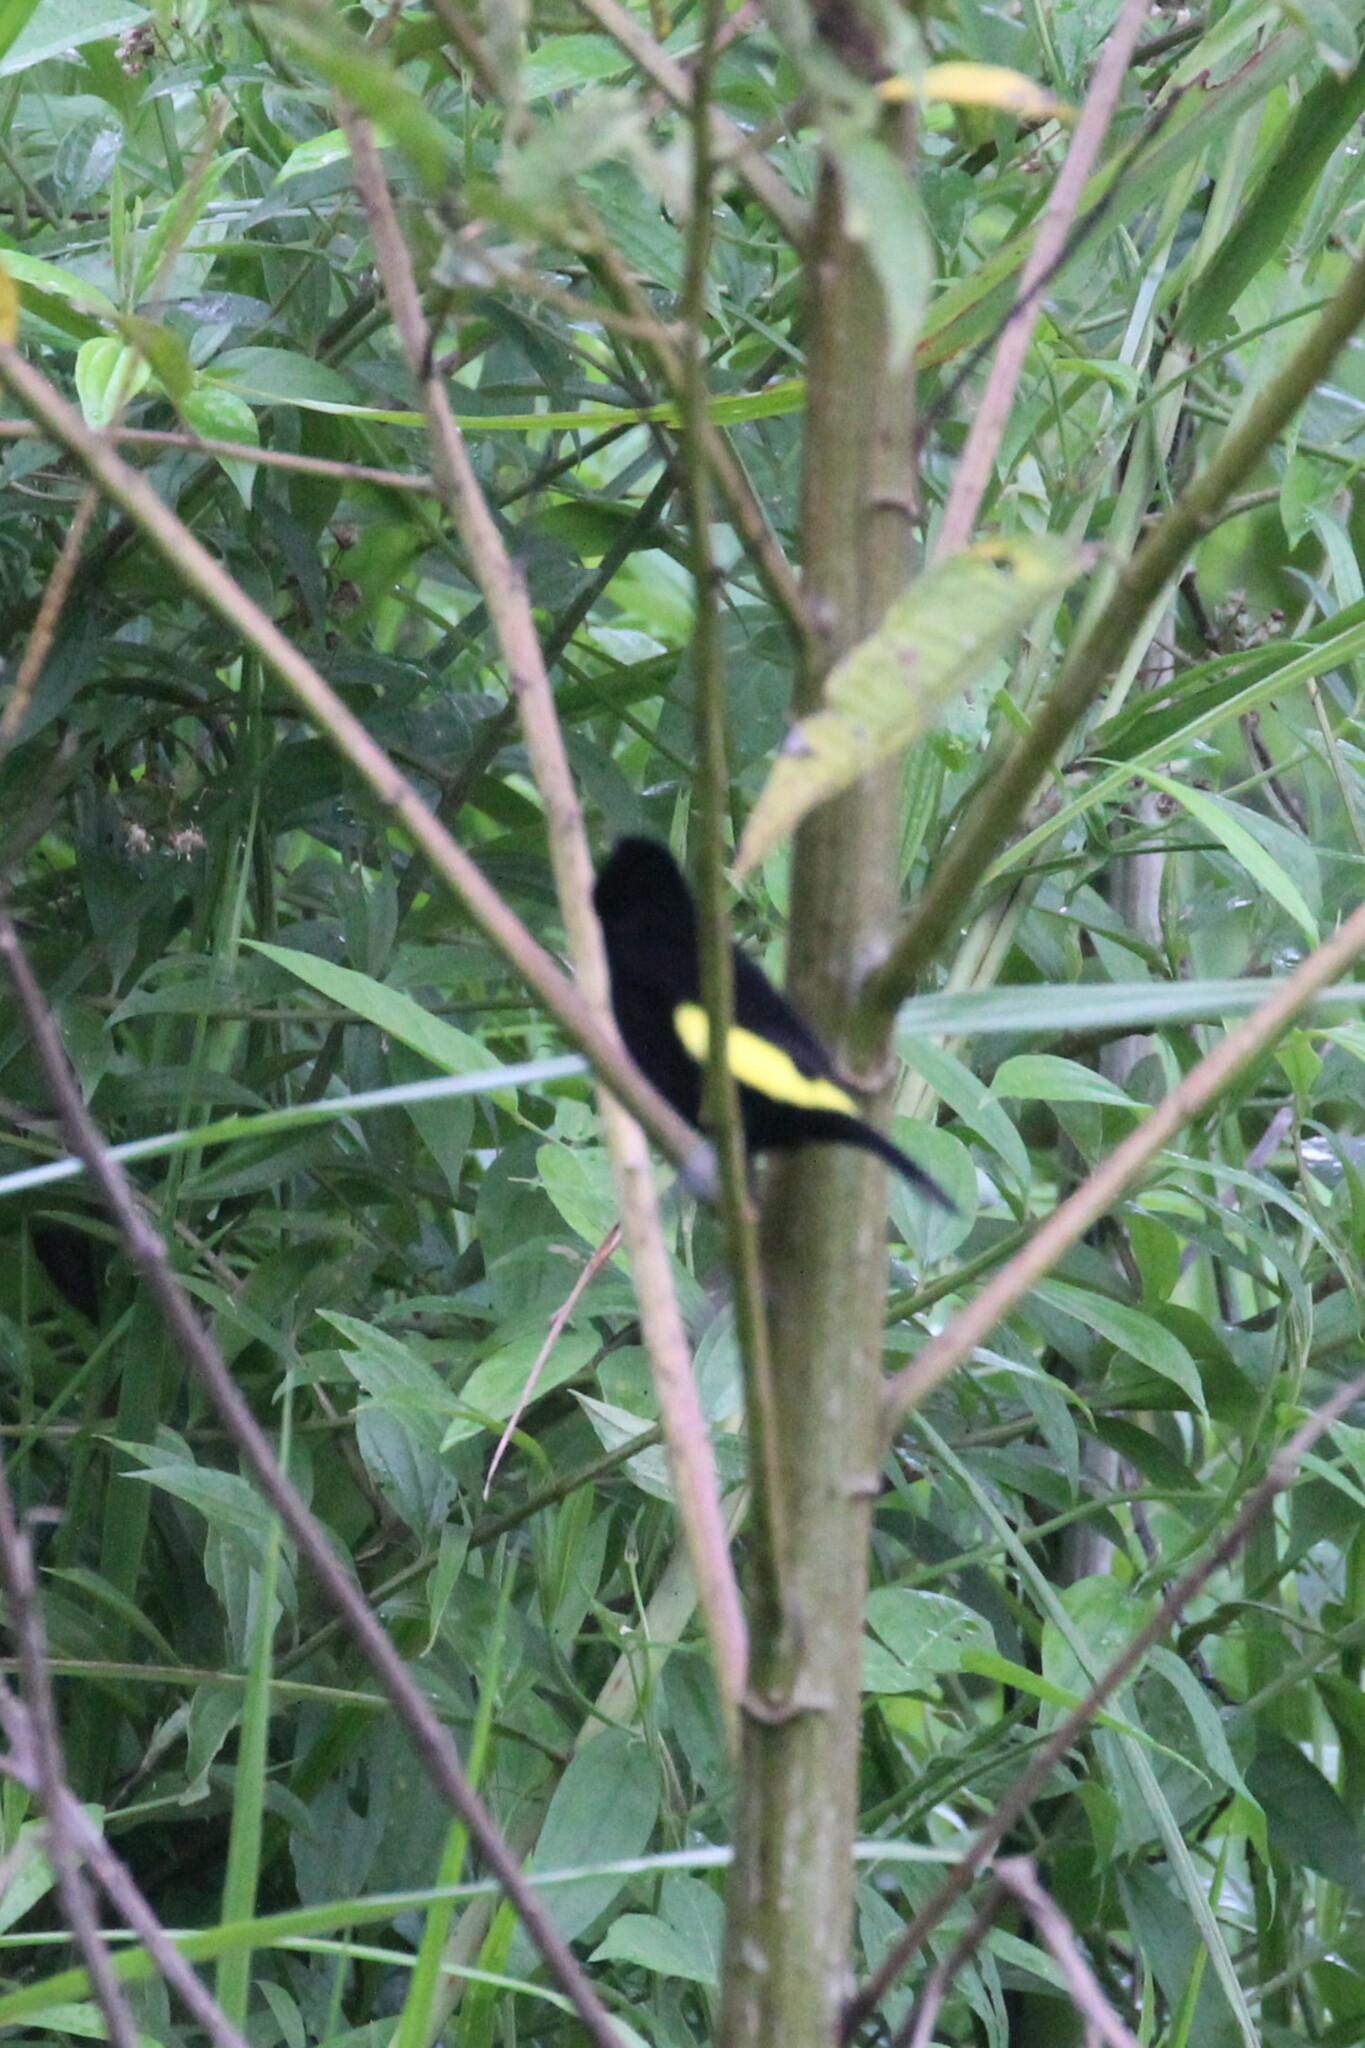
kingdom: Animalia
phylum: Chordata
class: Aves
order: Passeriformes
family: Thraupidae
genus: Ramphocelus
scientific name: Ramphocelus flammigerus
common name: Flame-rumped tanager
